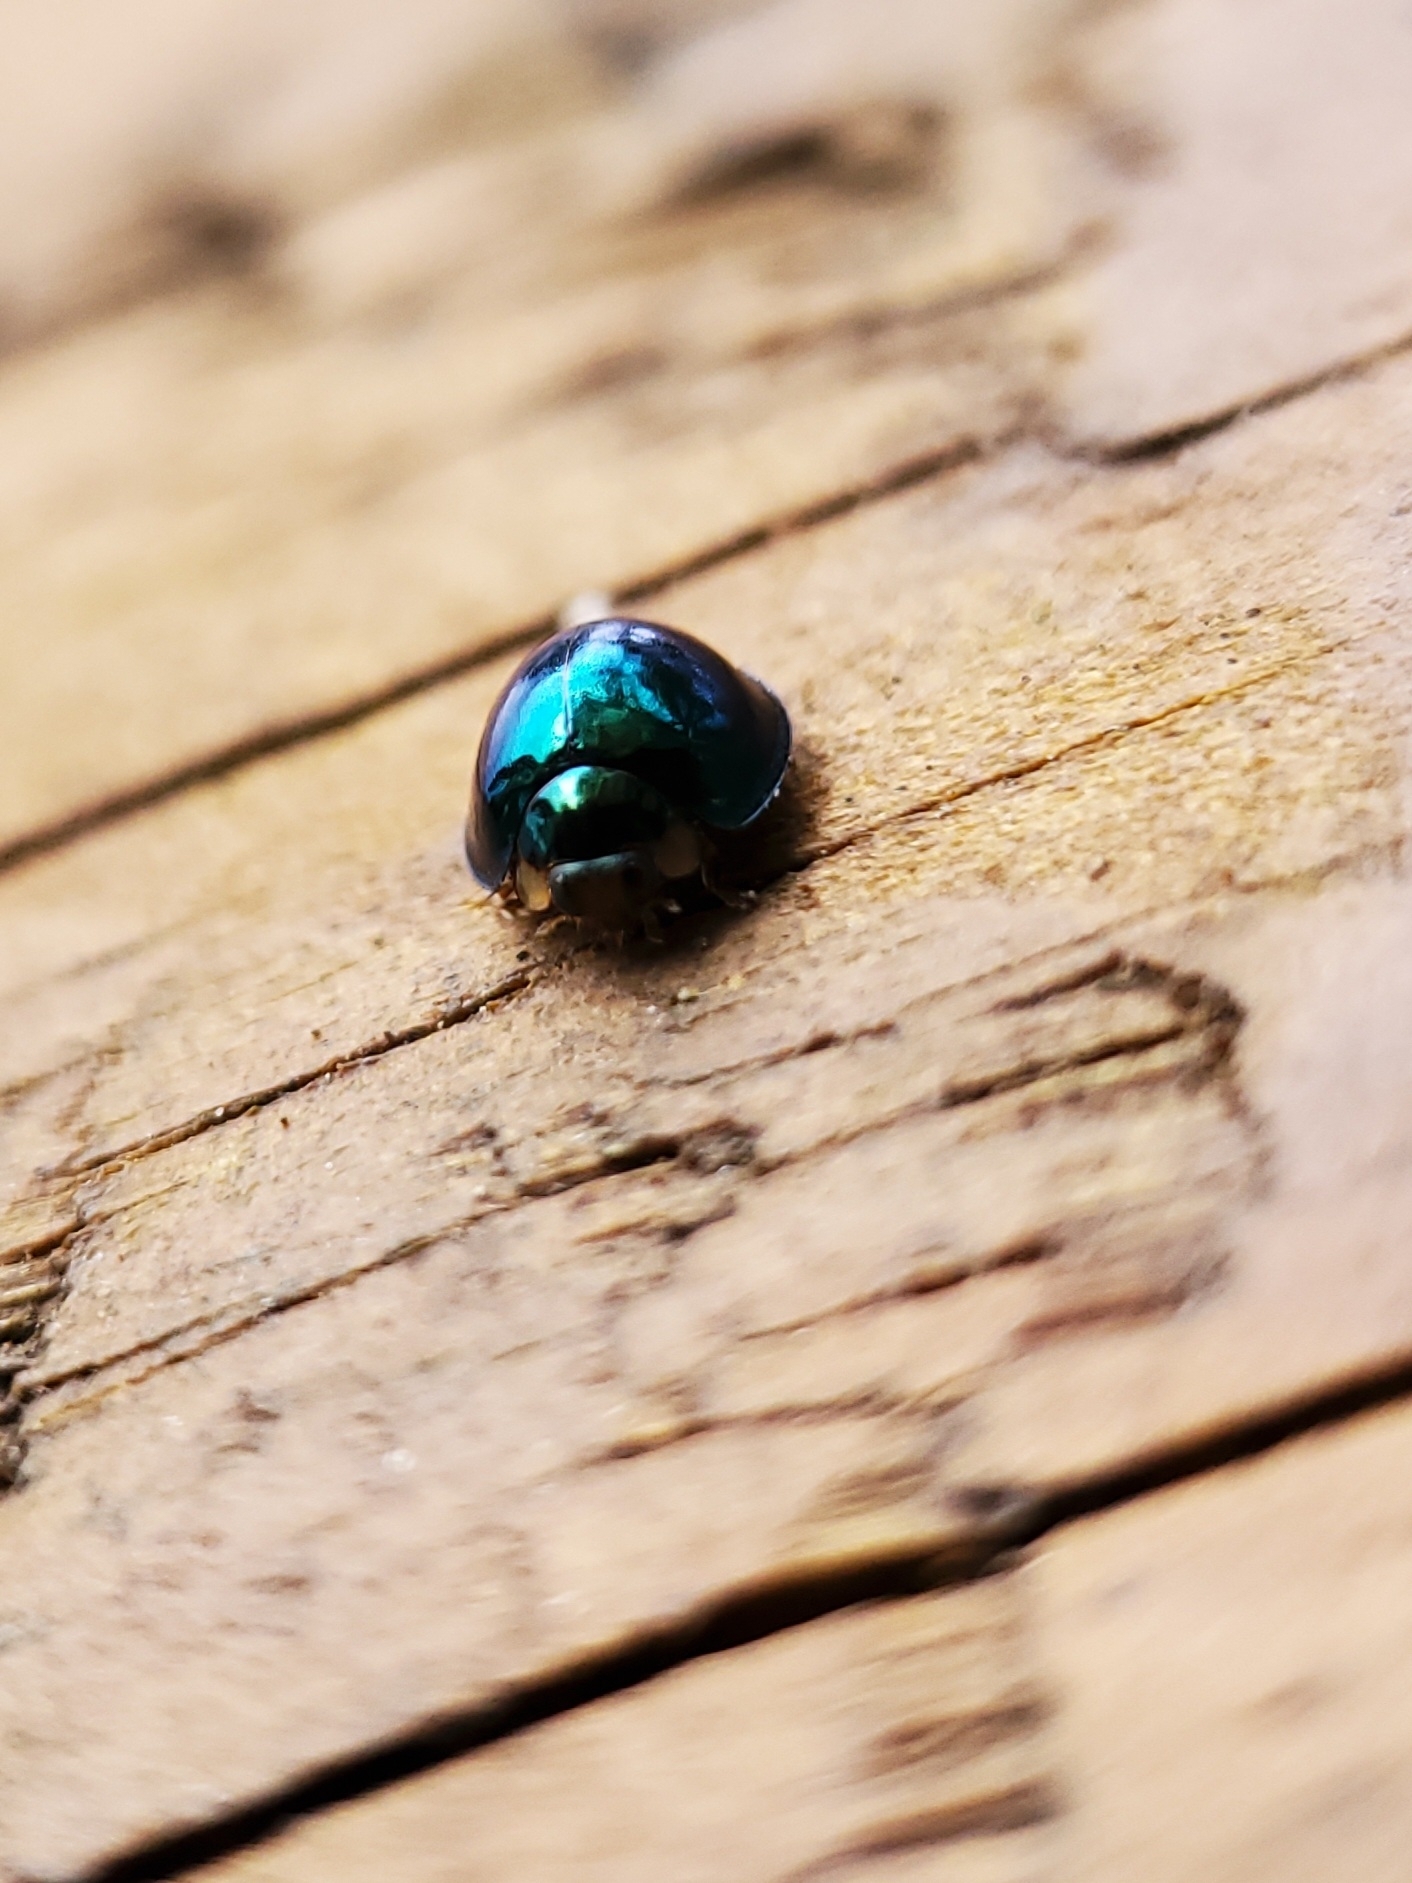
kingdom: Animalia
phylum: Arthropoda
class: Insecta
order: Coleoptera
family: Coccinellidae
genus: Halmus
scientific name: Halmus chalybeus
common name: Steel blue ladybird beetle
